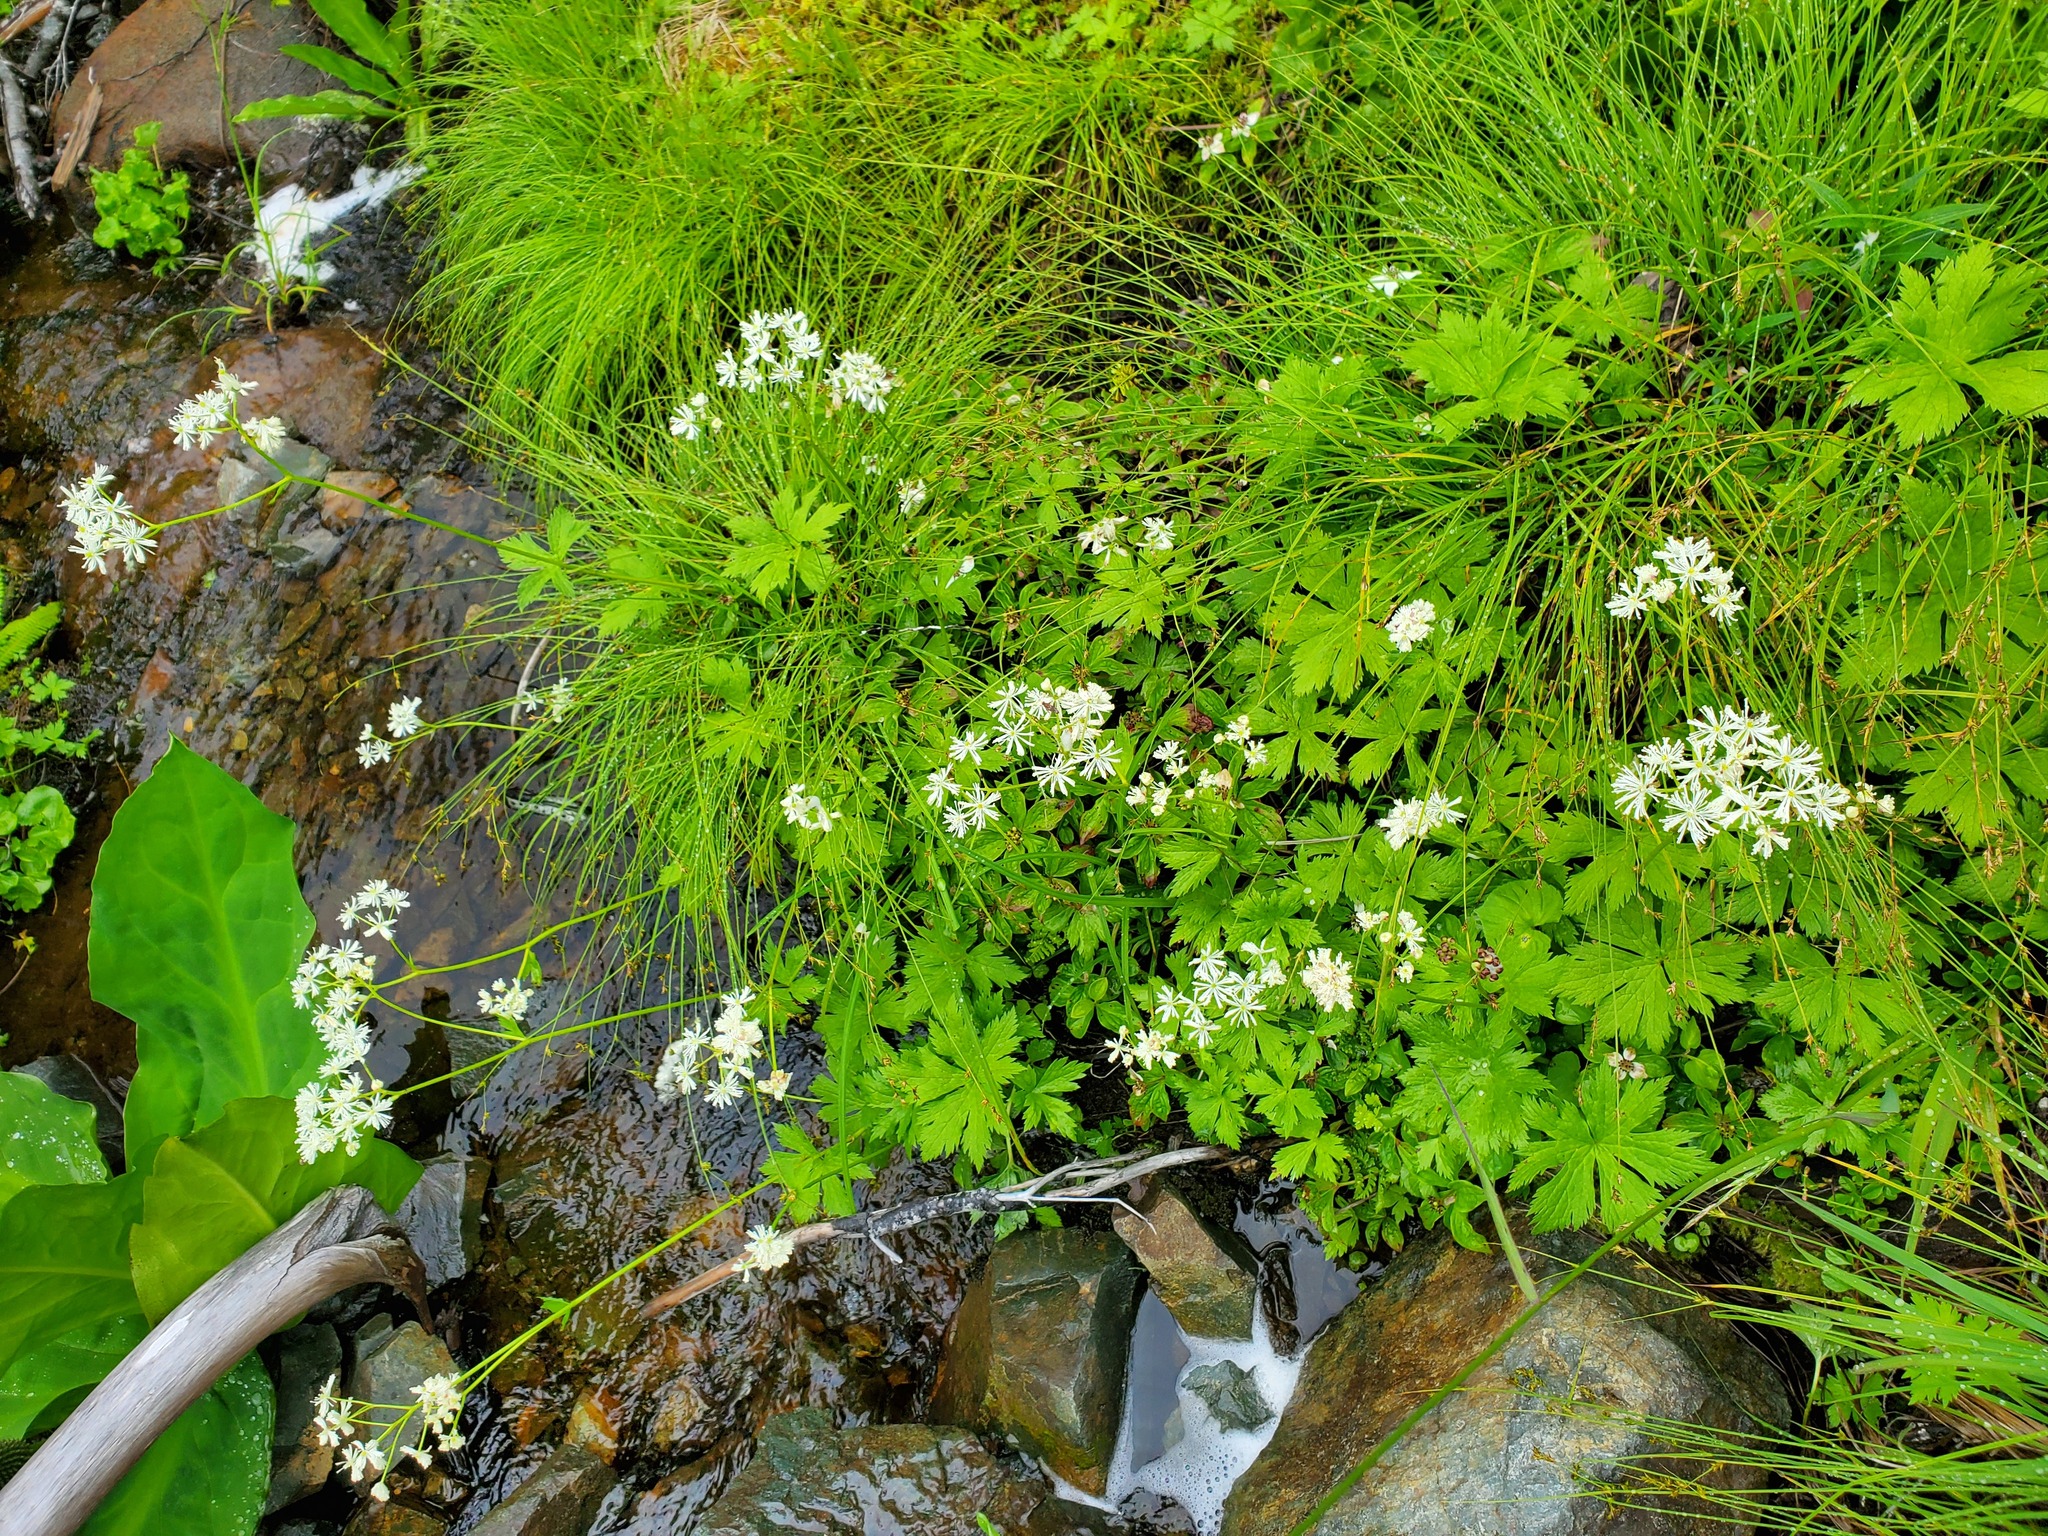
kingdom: Plantae
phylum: Tracheophyta
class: Magnoliopsida
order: Ranunculales
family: Ranunculaceae
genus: Trautvetteria
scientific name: Trautvetteria carolinensis
